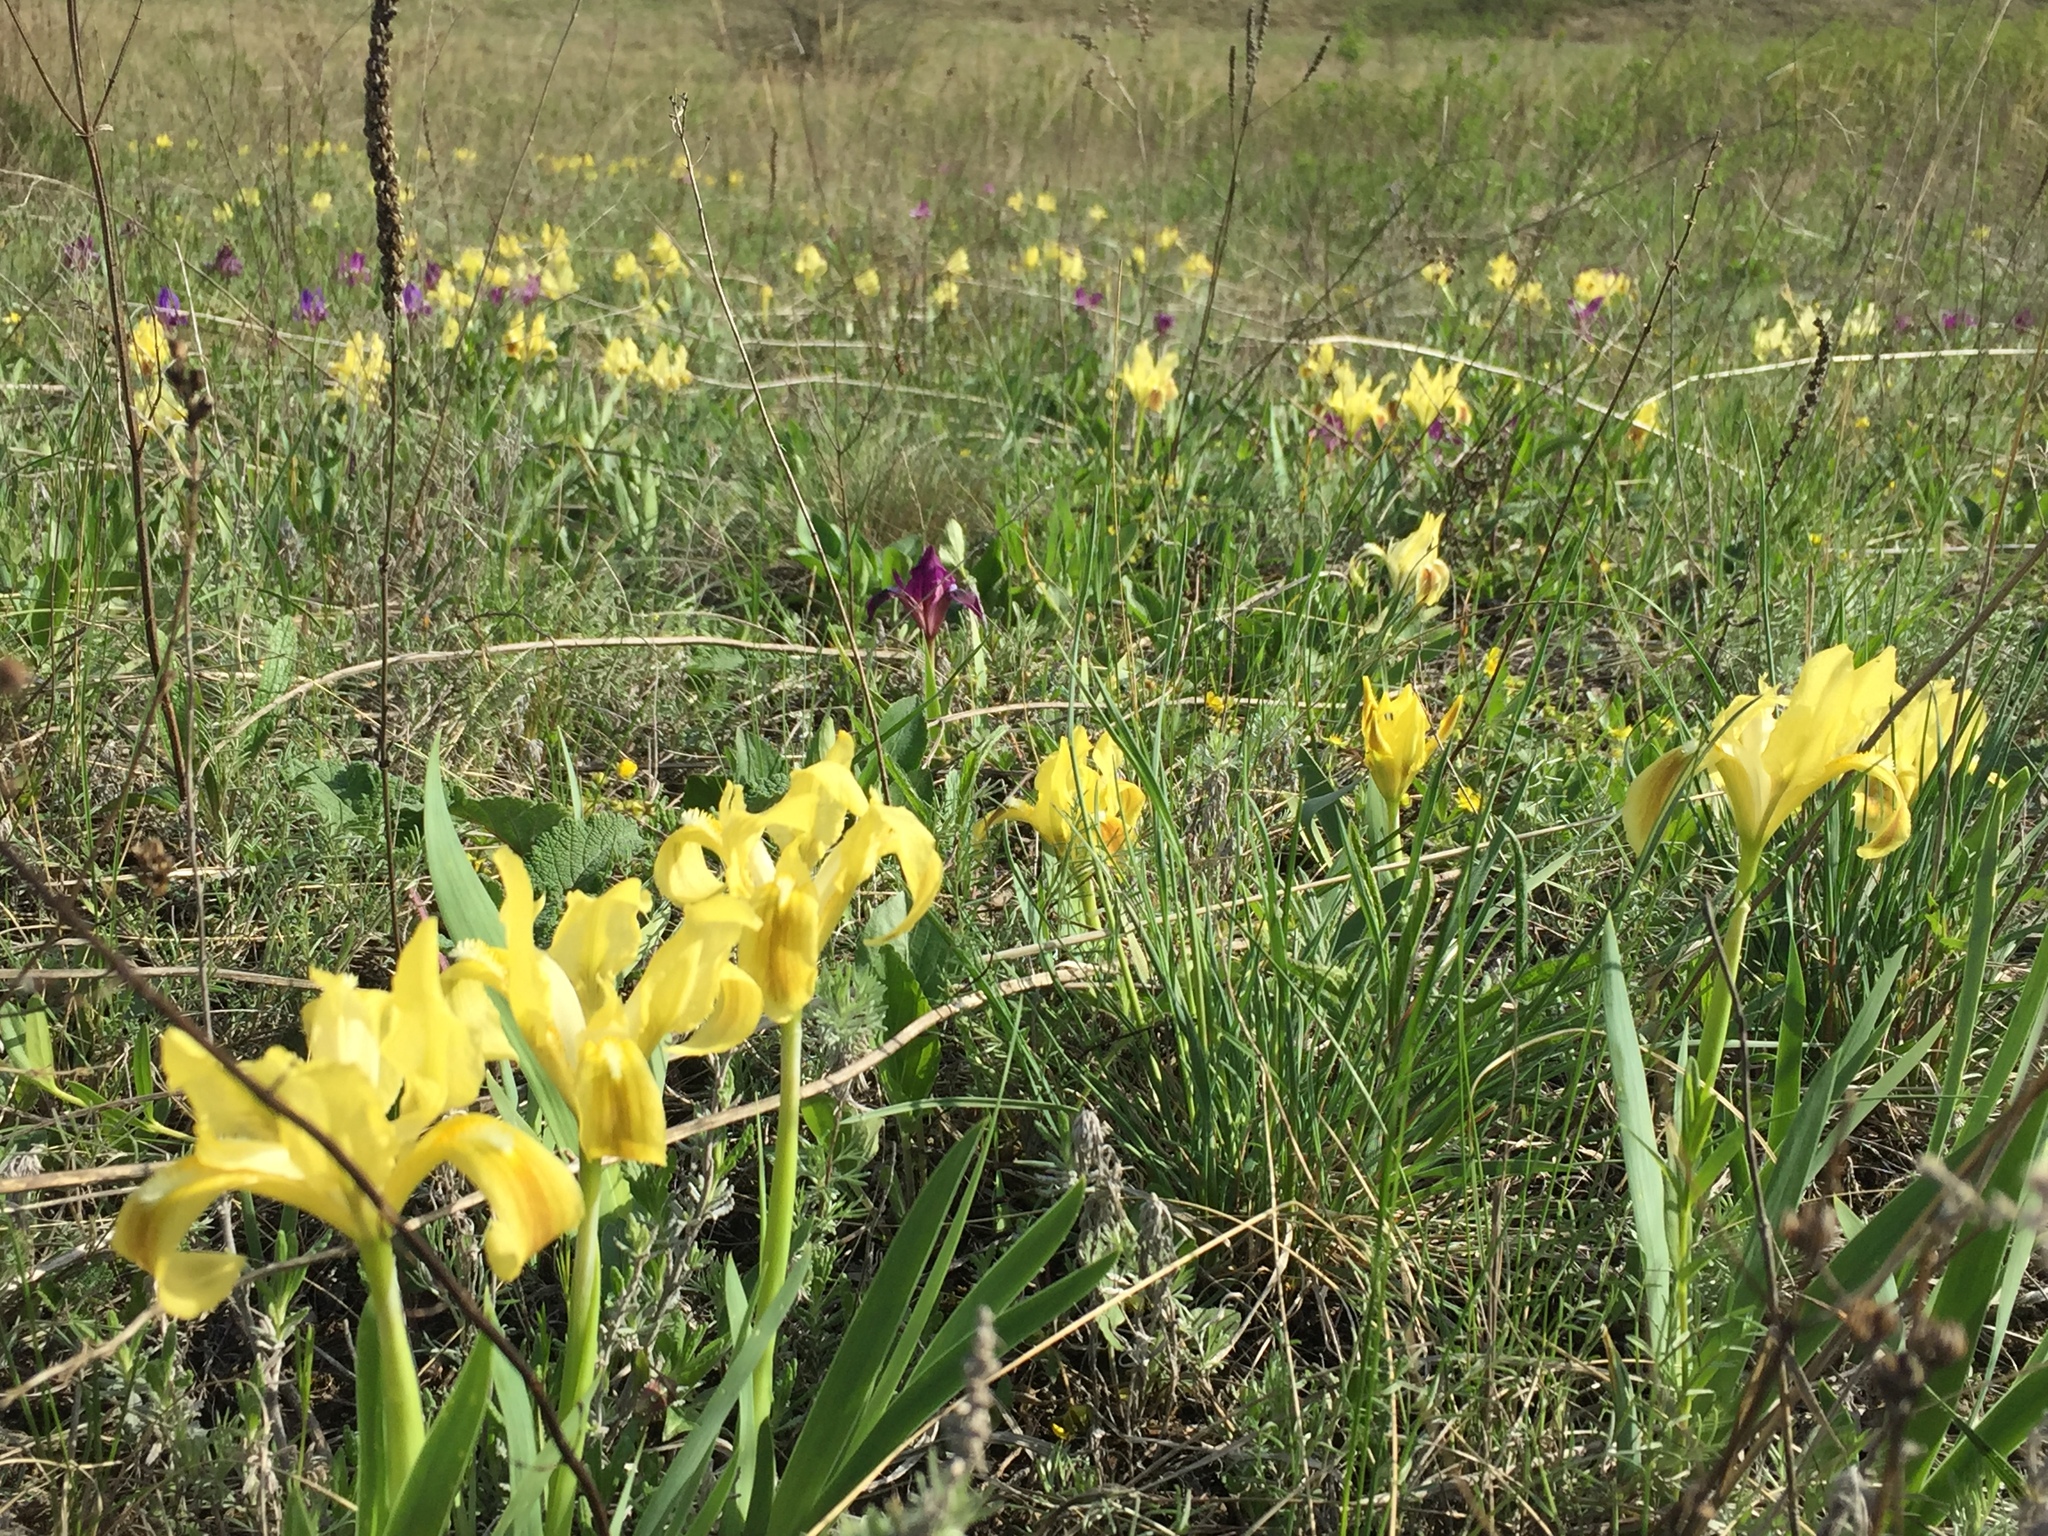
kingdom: Plantae
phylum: Tracheophyta
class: Liliopsida
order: Asparagales
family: Iridaceae
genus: Iris
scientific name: Iris pumila
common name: Dwarf iris
